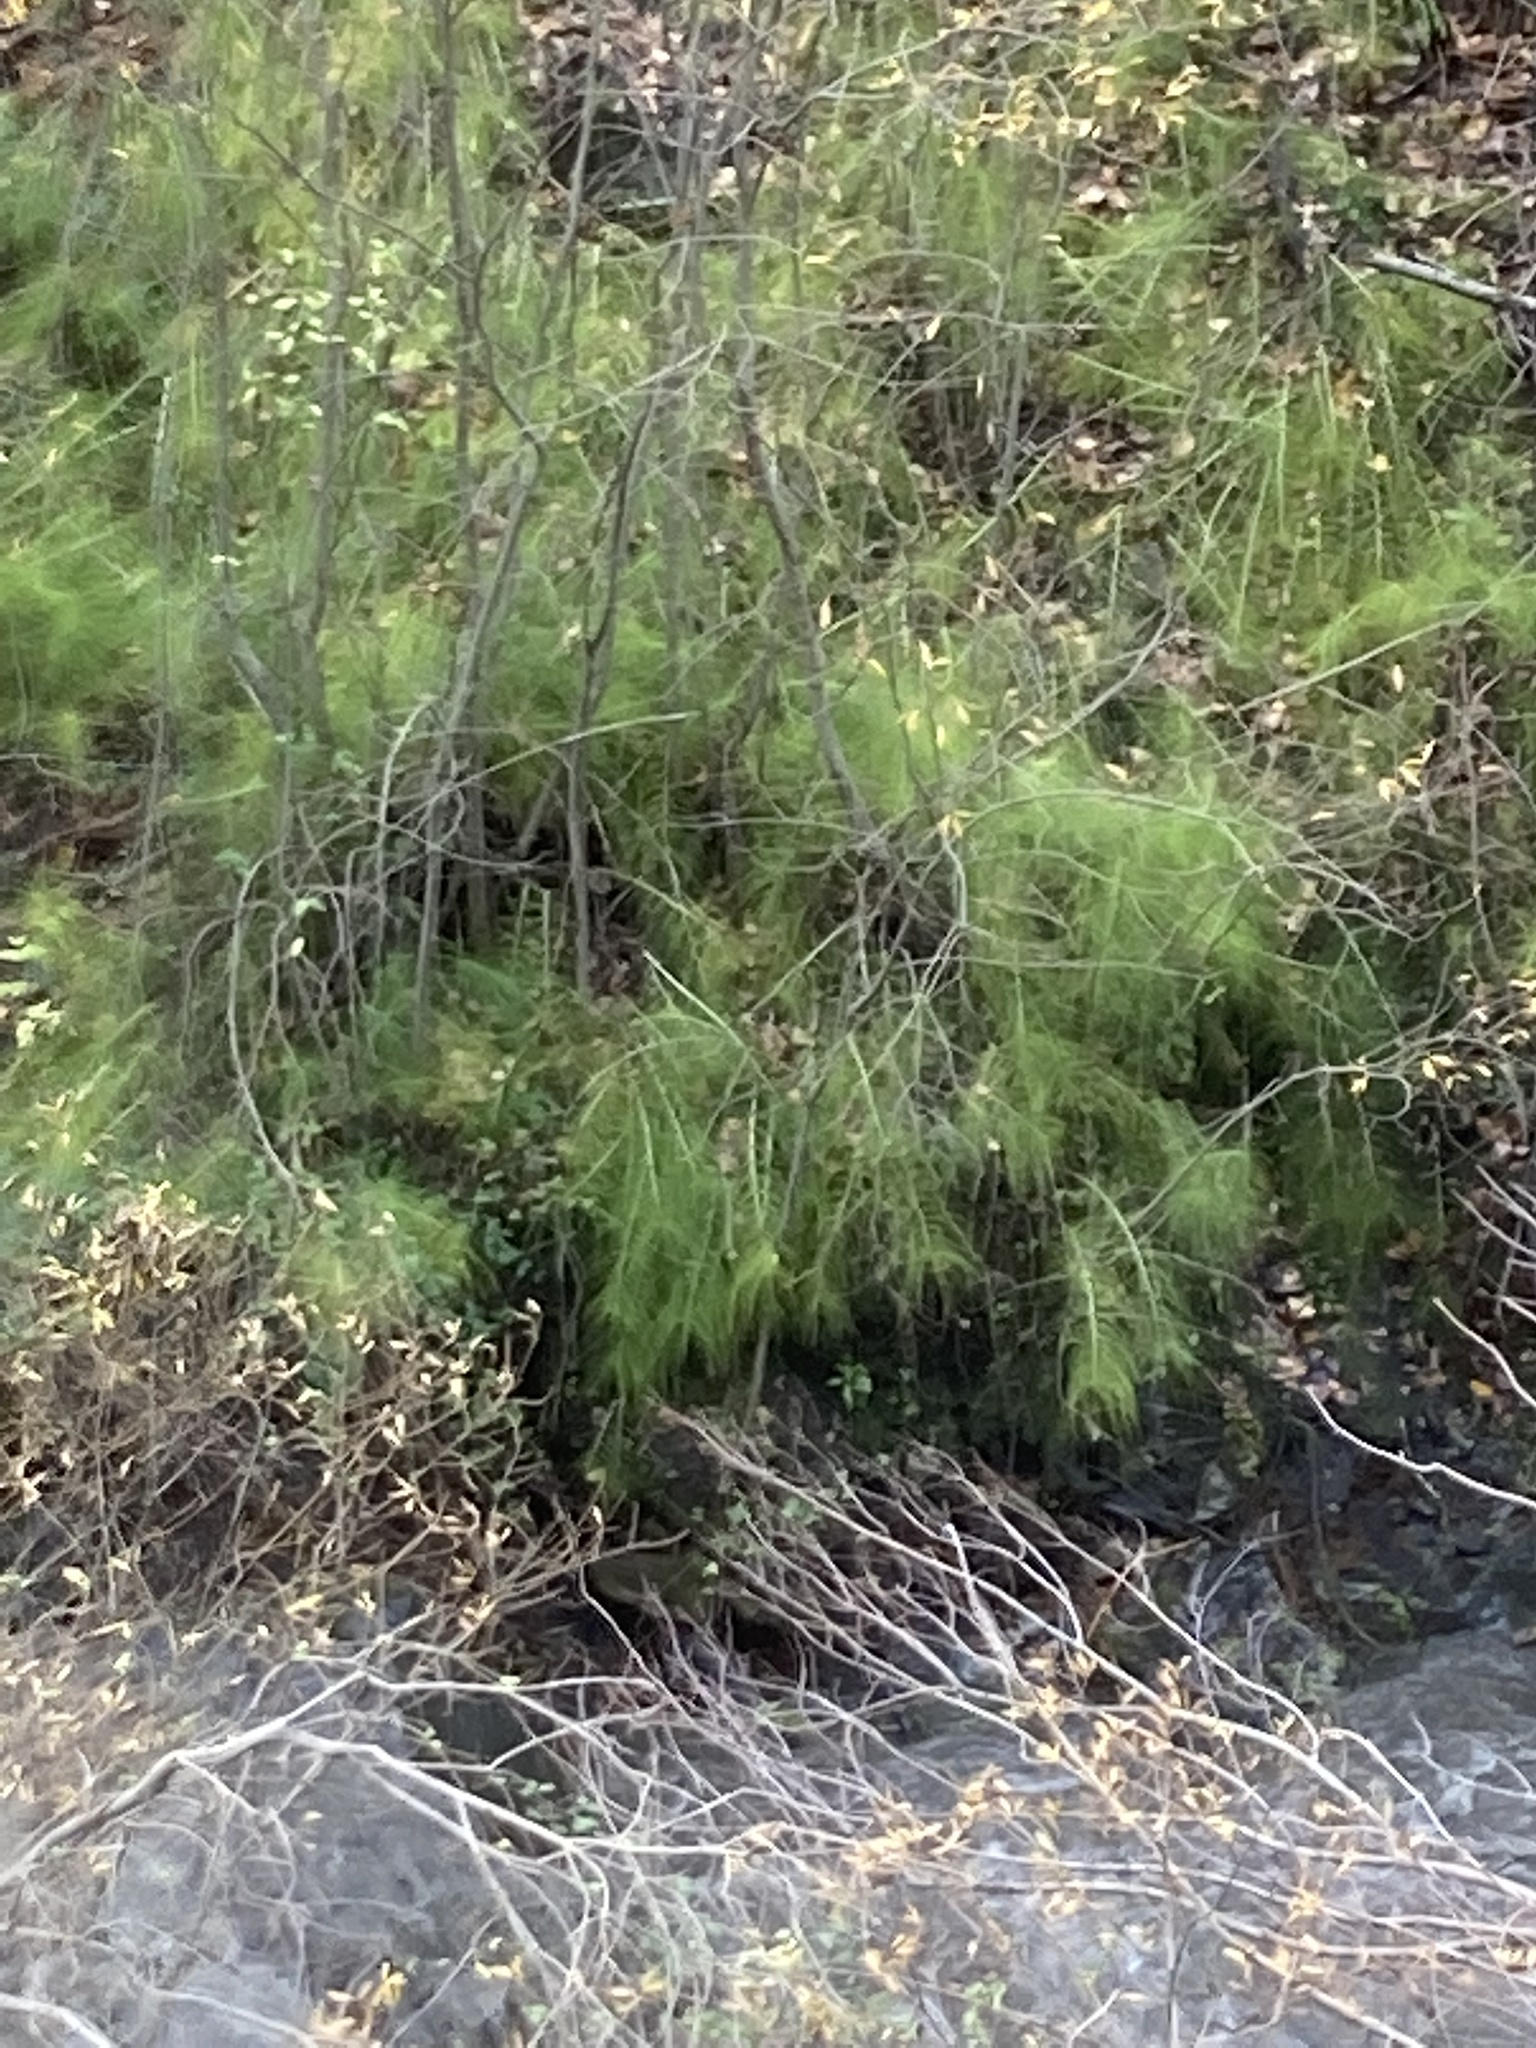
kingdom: Plantae
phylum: Tracheophyta
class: Polypodiopsida
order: Equisetales
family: Equisetaceae
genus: Equisetum
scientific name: Equisetum telmateia
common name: Great horsetail
